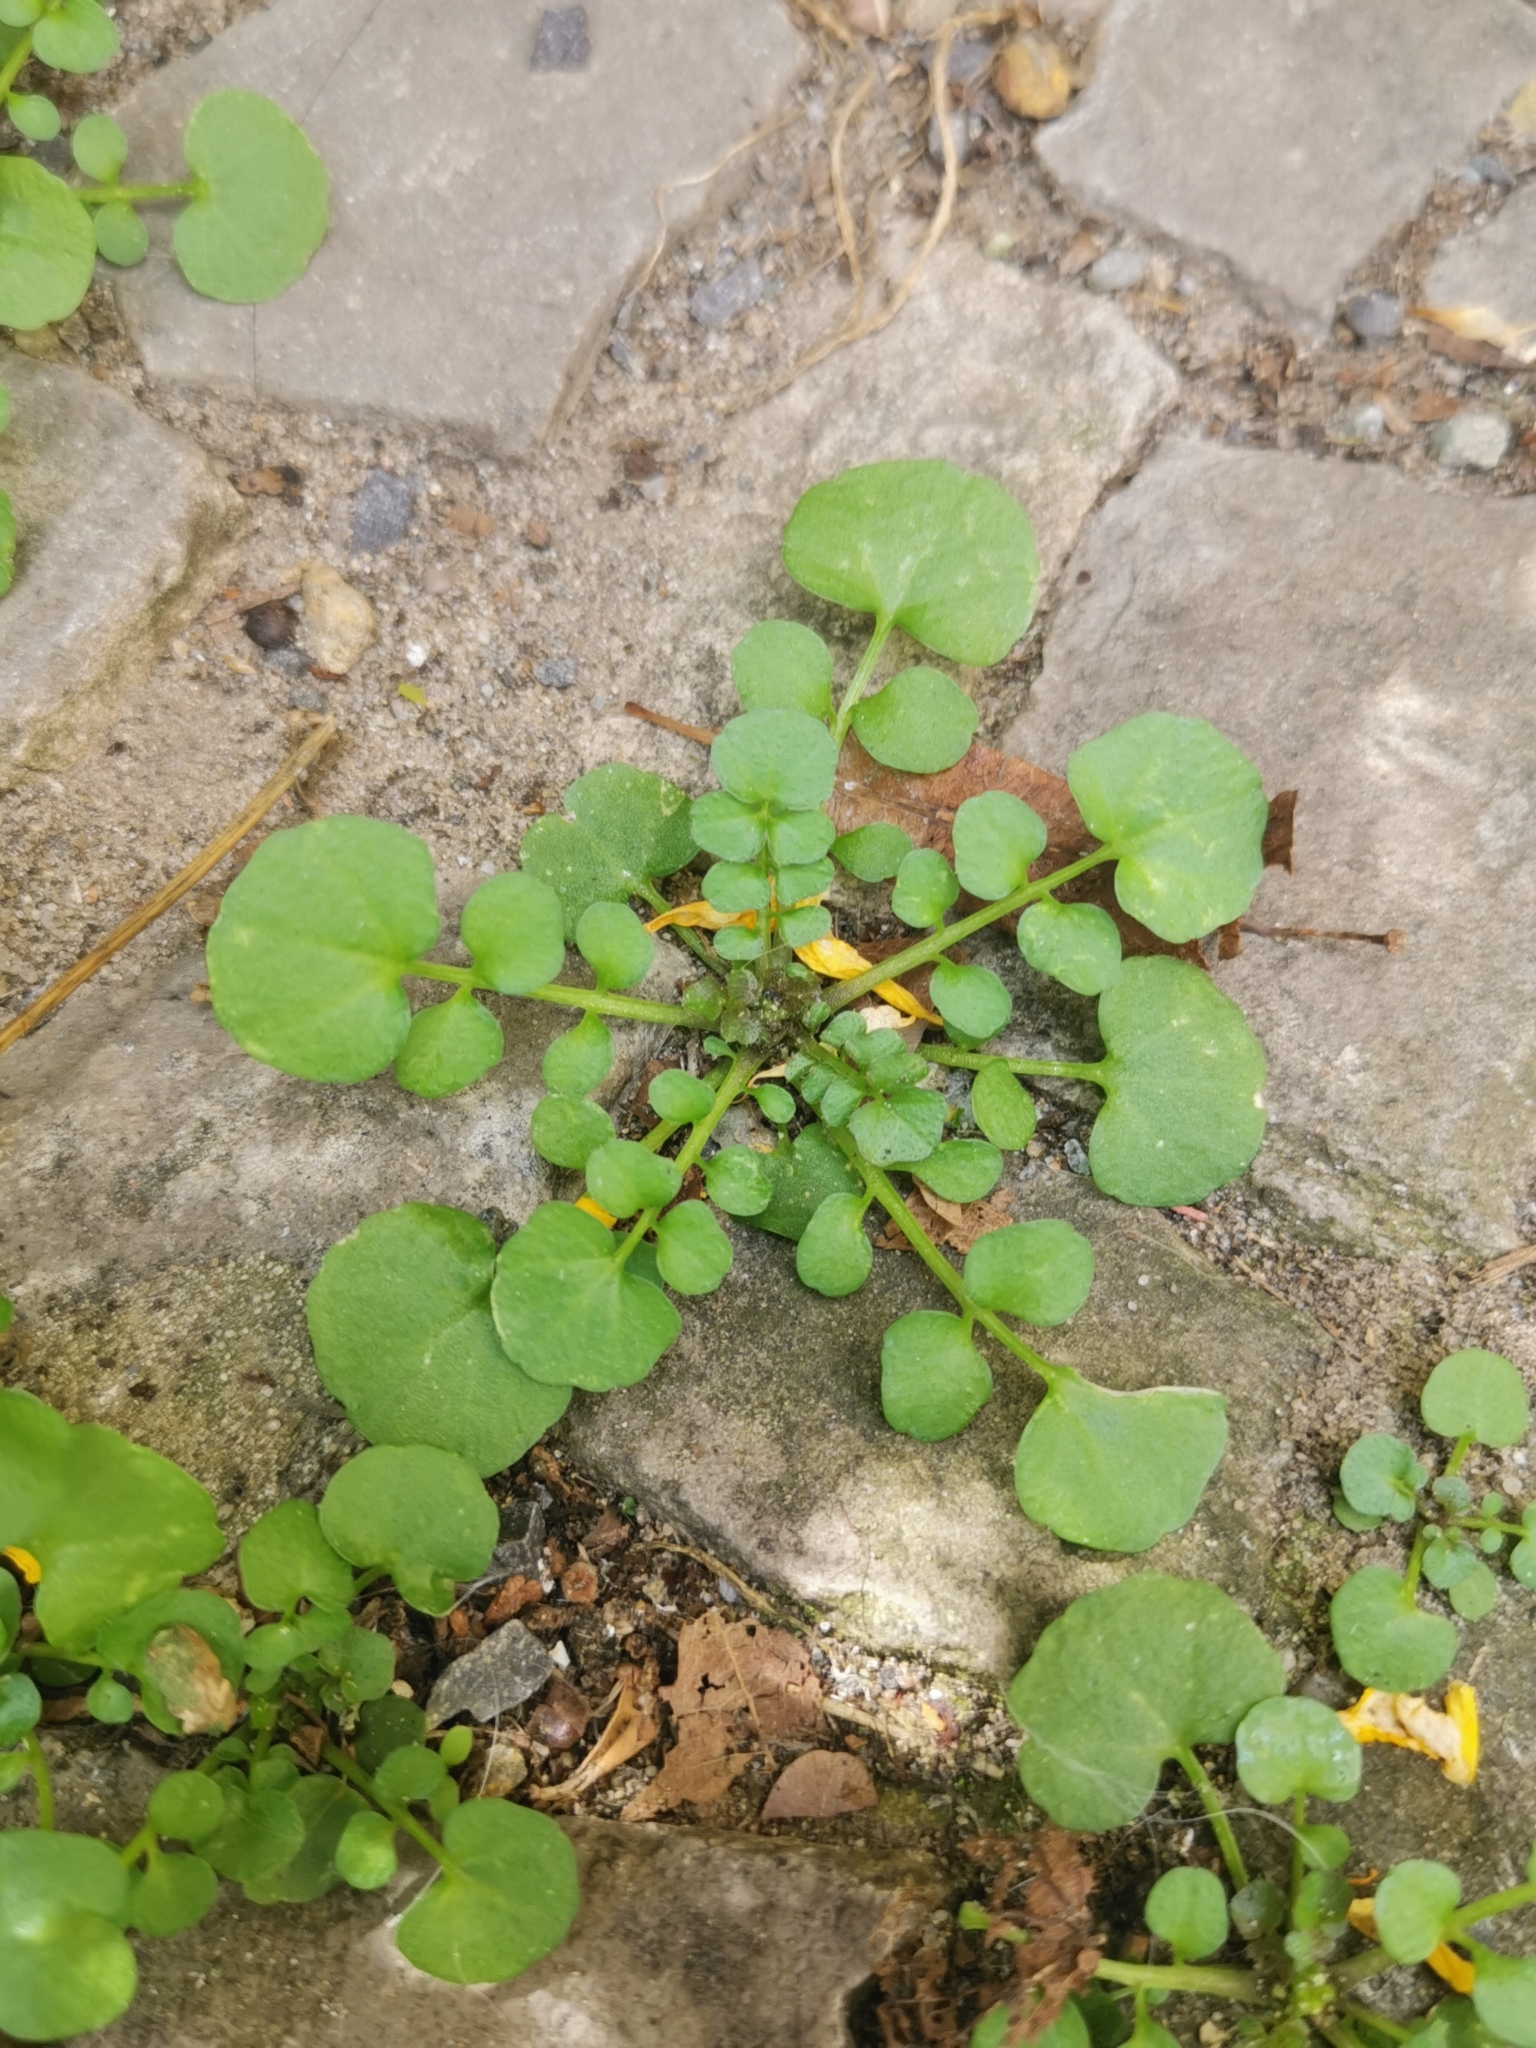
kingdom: Plantae
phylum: Tracheophyta
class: Magnoliopsida
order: Brassicales
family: Brassicaceae
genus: Cardamine
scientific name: Cardamine hirsuta
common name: Hairy bittercress
